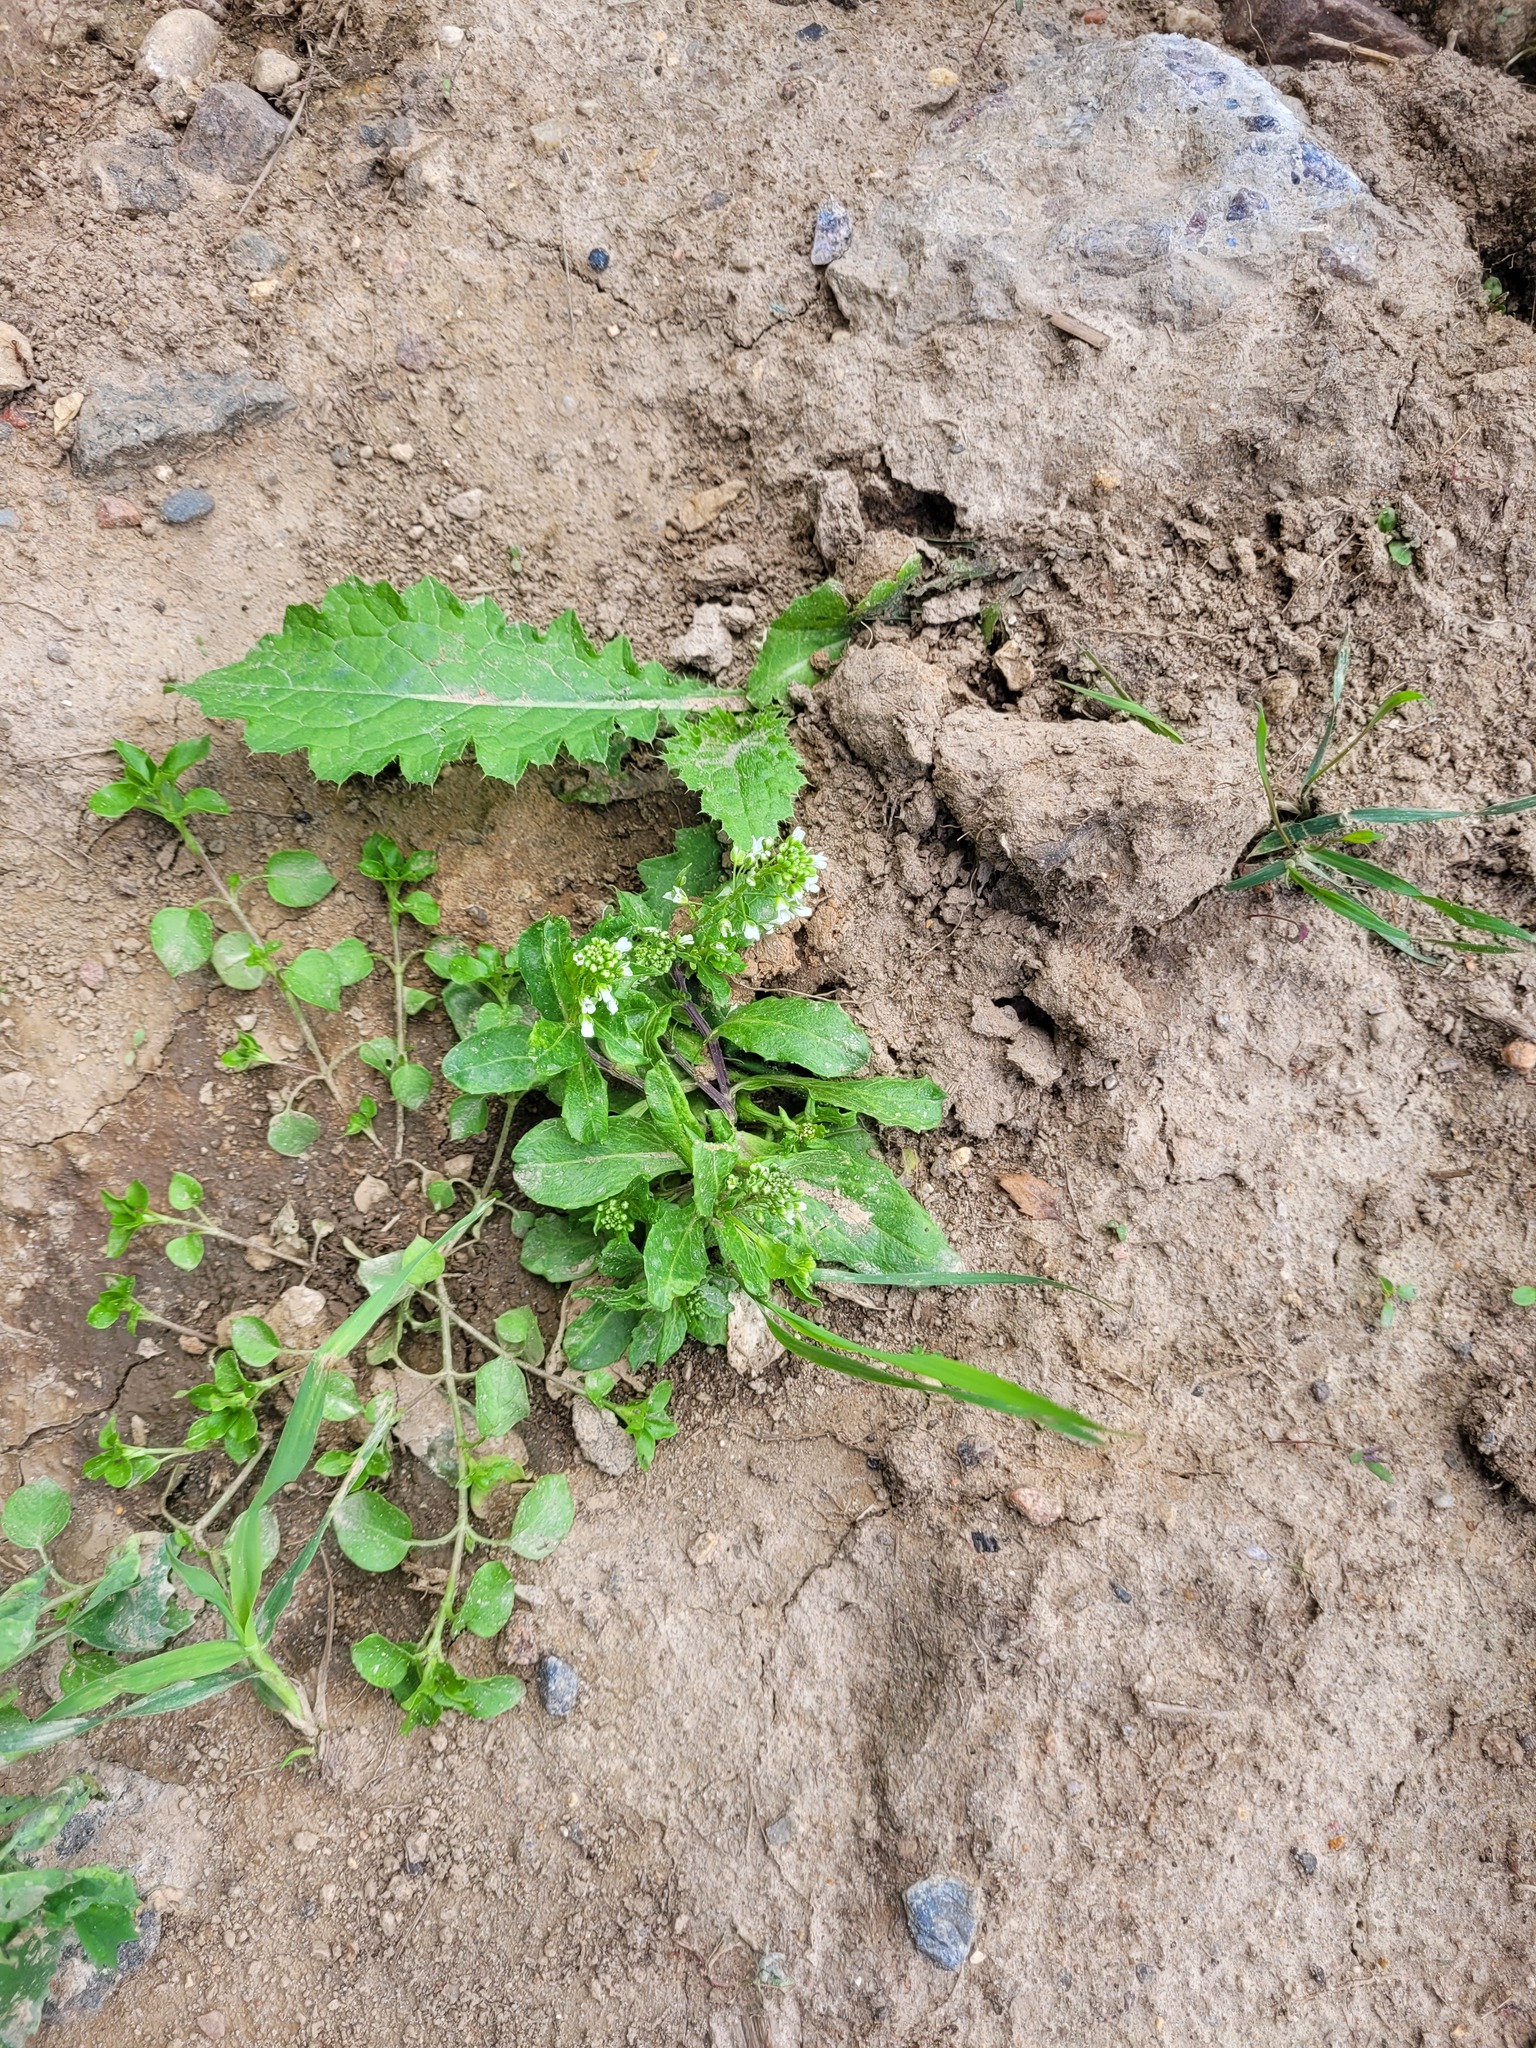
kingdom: Plantae
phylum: Tracheophyta
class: Magnoliopsida
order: Brassicales
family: Brassicaceae
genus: Thlaspi
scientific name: Thlaspi arvense
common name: Field pennycress
